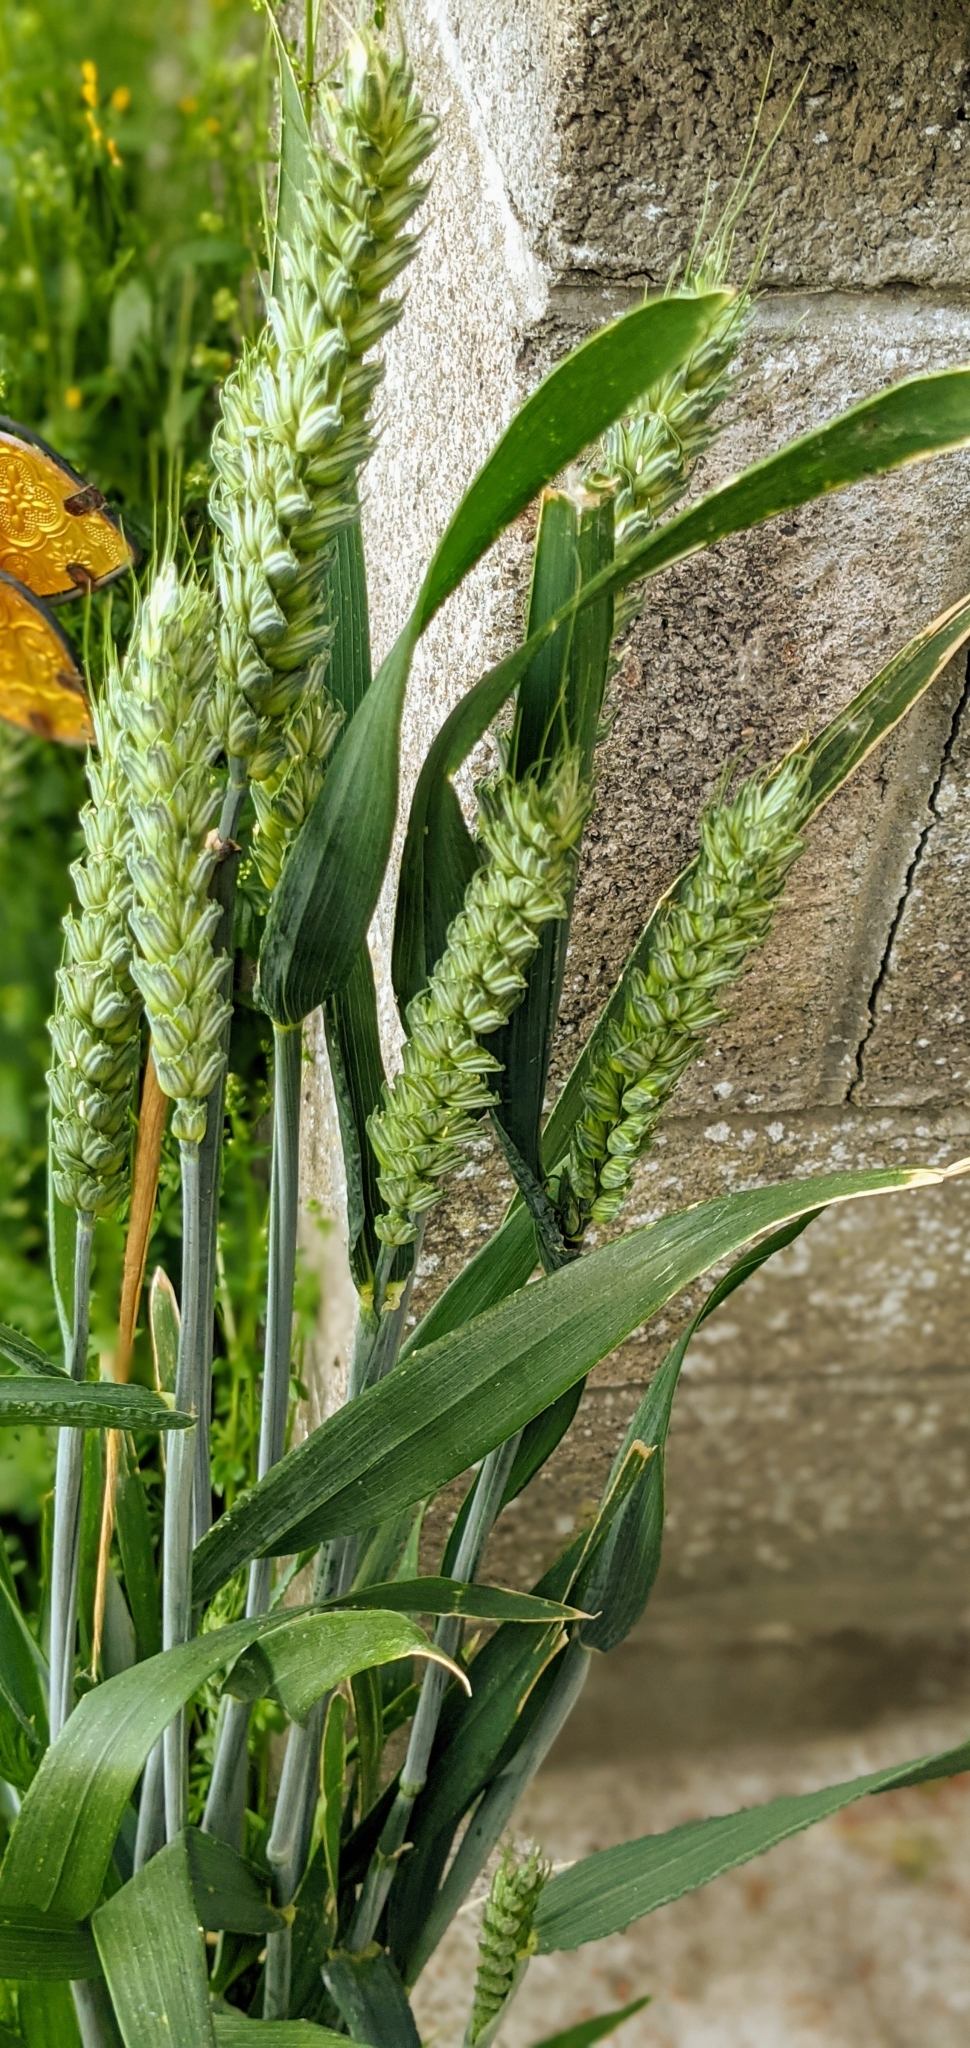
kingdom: Plantae
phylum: Tracheophyta
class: Liliopsida
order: Poales
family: Poaceae
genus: Triticum
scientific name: Triticum aestivum
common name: Common wheat
